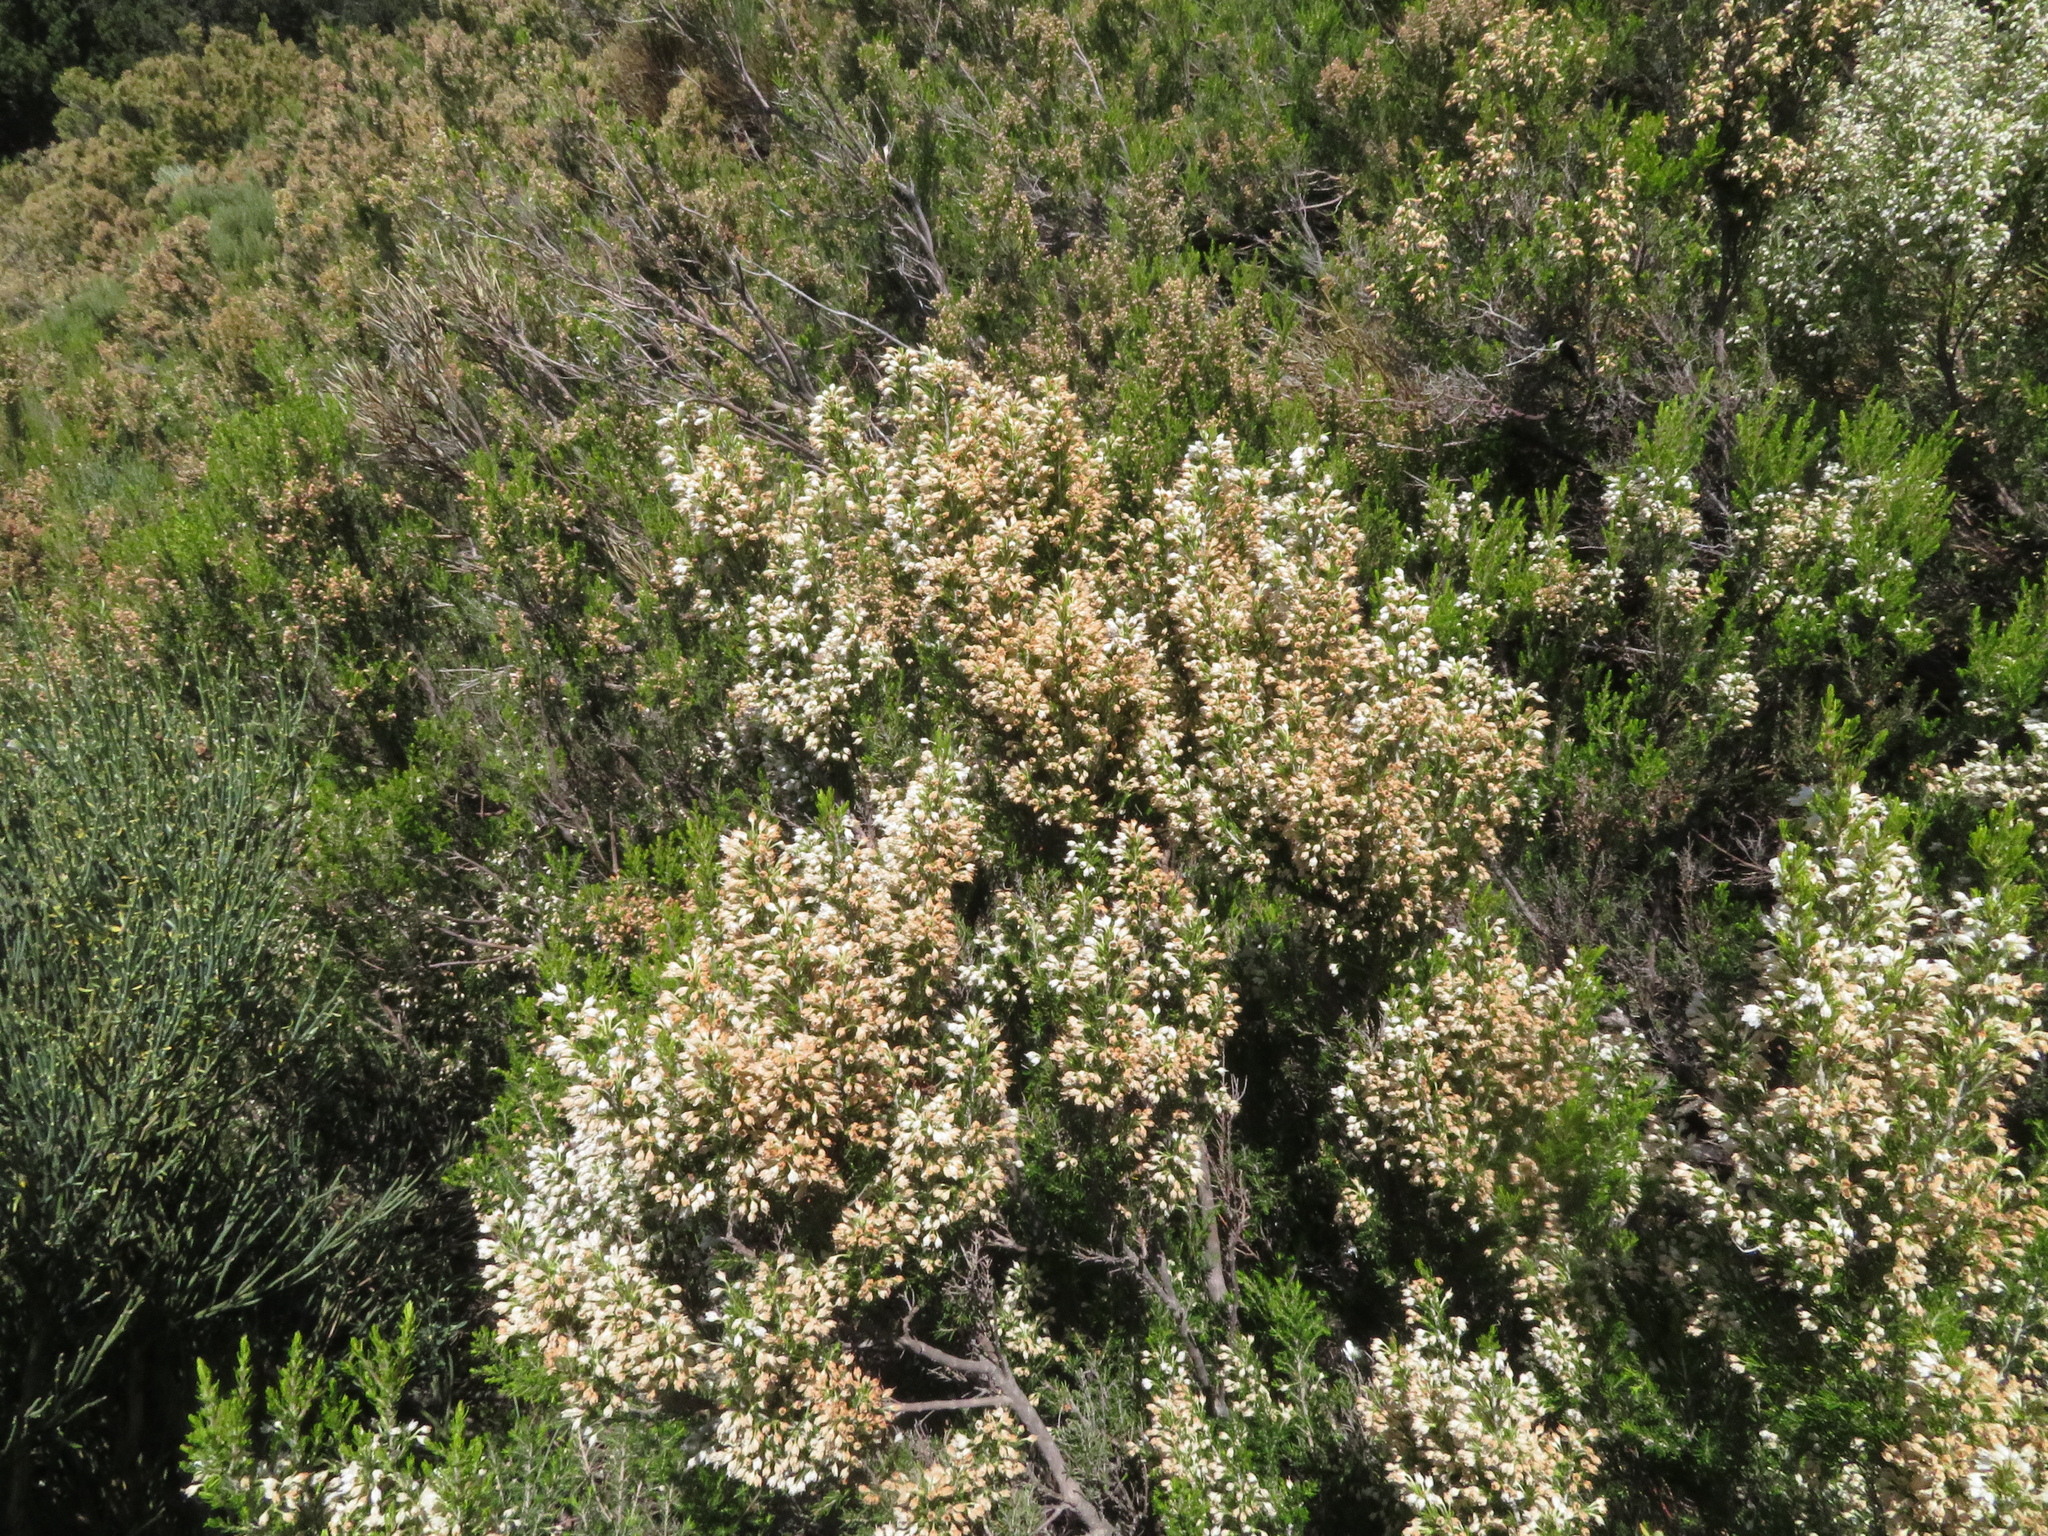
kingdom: Plantae
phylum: Tracheophyta
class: Magnoliopsida
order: Ericales
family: Ericaceae
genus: Erica
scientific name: Erica arborea
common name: Tree heath
